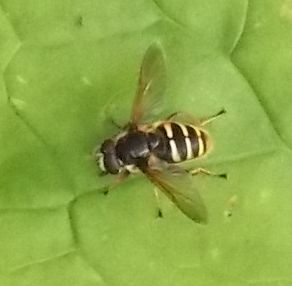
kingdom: Animalia
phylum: Arthropoda
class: Insecta
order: Diptera
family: Syrphidae
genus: Sericomyia
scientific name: Sericomyia silentis
